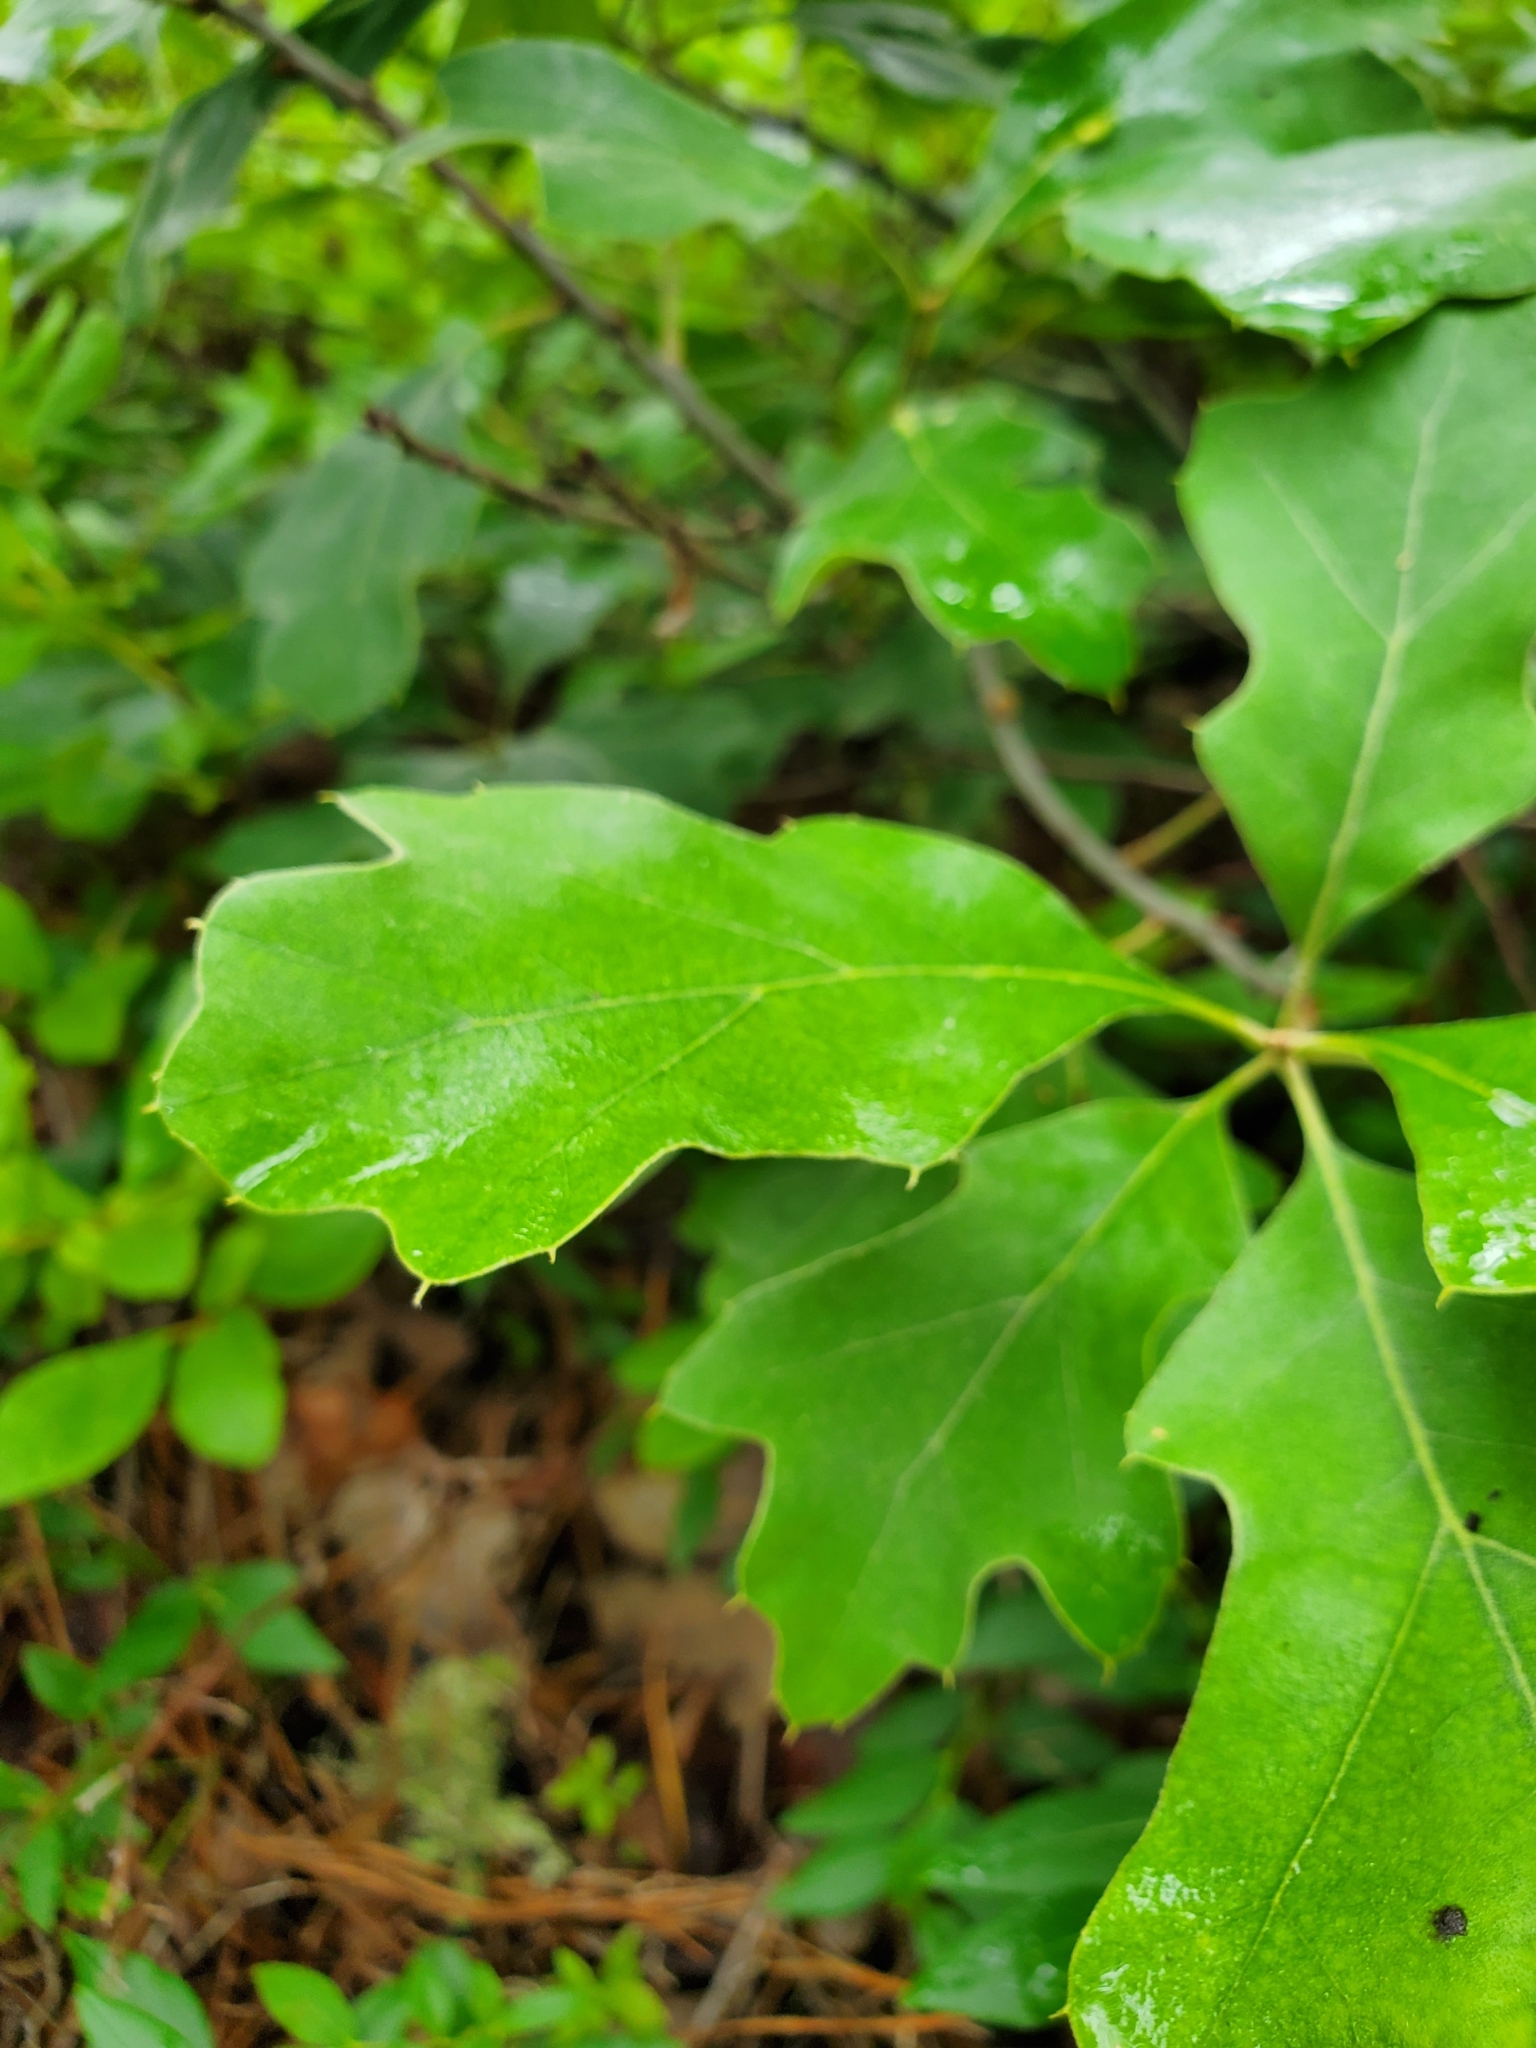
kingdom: Plantae
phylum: Tracheophyta
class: Magnoliopsida
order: Fagales
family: Fagaceae
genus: Quercus
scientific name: Quercus ilicifolia
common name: Bear oak
